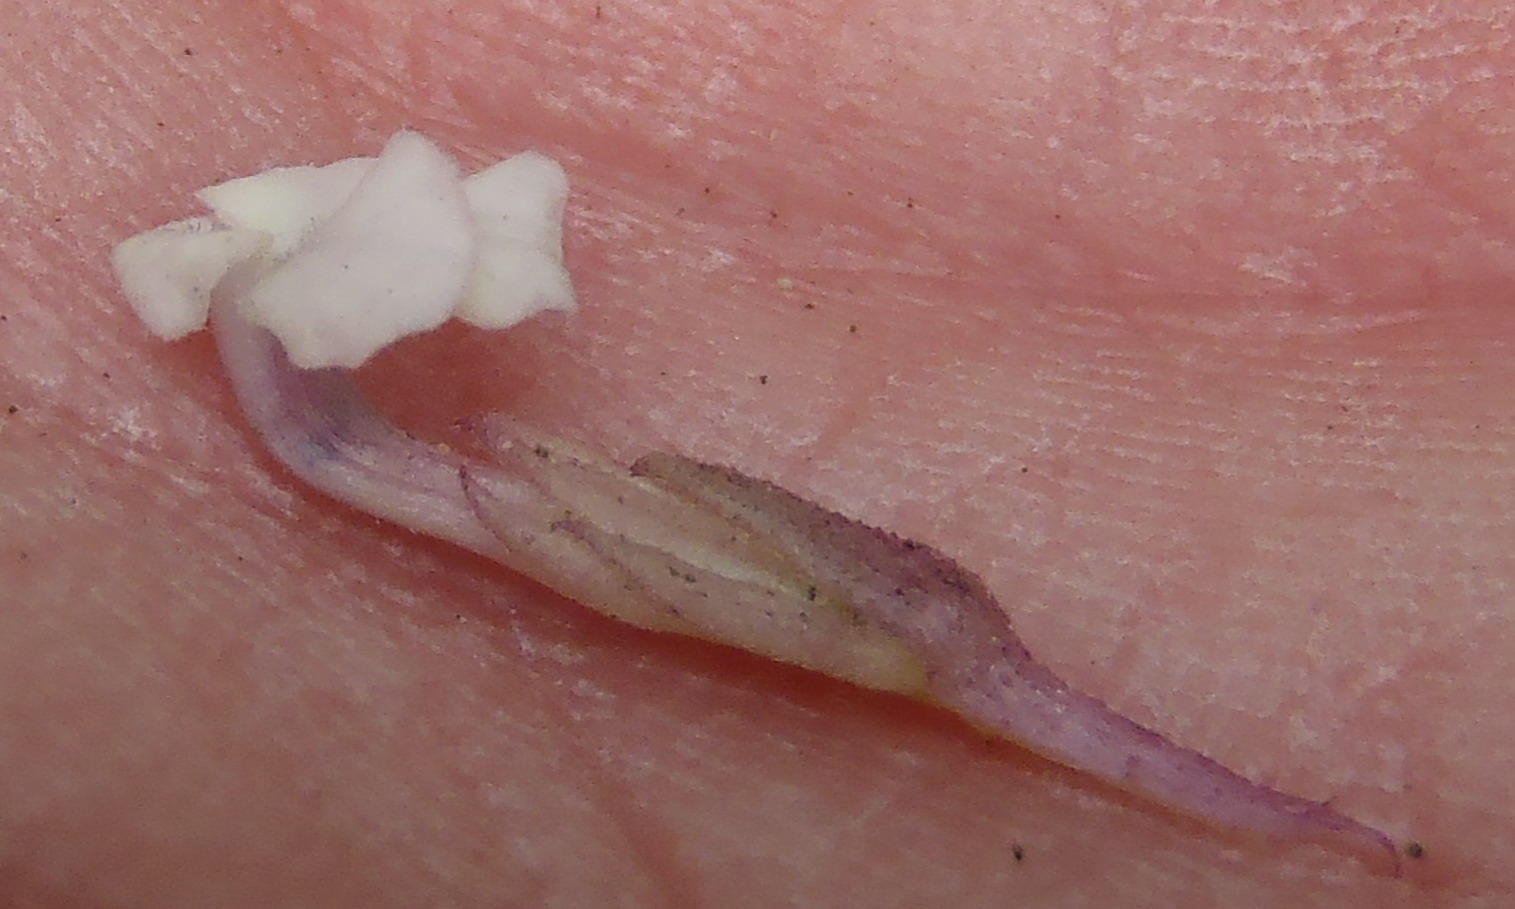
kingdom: Plantae
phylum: Tracheophyta
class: Magnoliopsida
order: Lamiales
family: Orobanchaceae
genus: Striga
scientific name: Striga gesnerioides
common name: Cowpea witchweed
